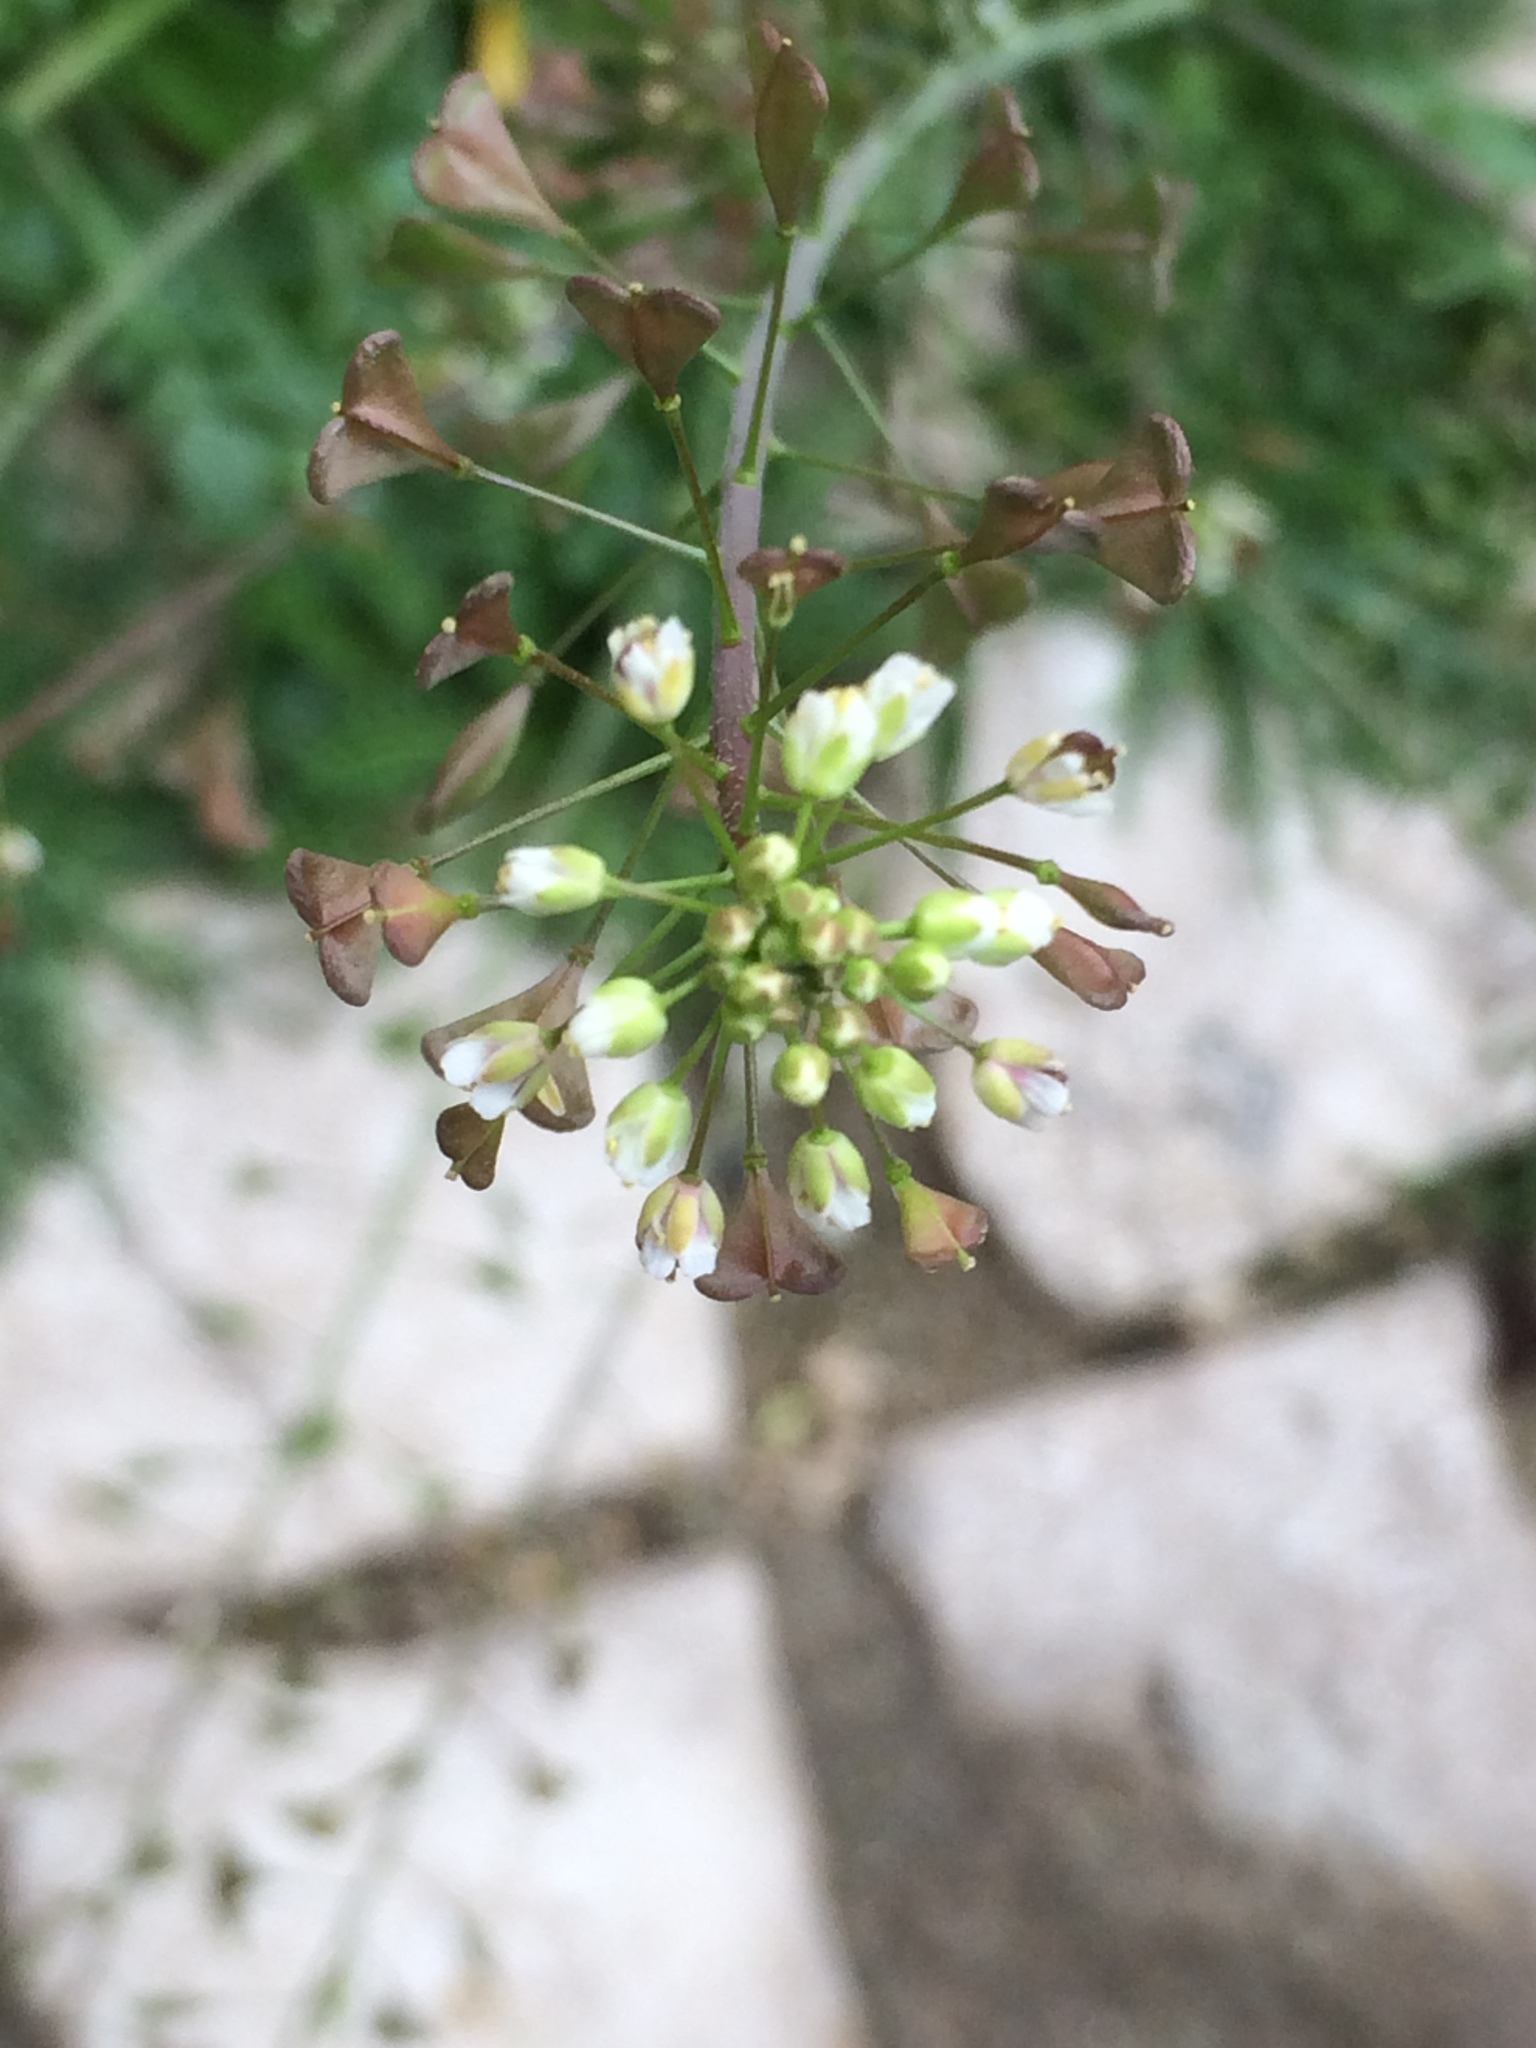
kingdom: Plantae
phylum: Tracheophyta
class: Magnoliopsida
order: Brassicales
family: Brassicaceae
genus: Capsella
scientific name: Capsella bursa-pastoris
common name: Shepherd's purse
